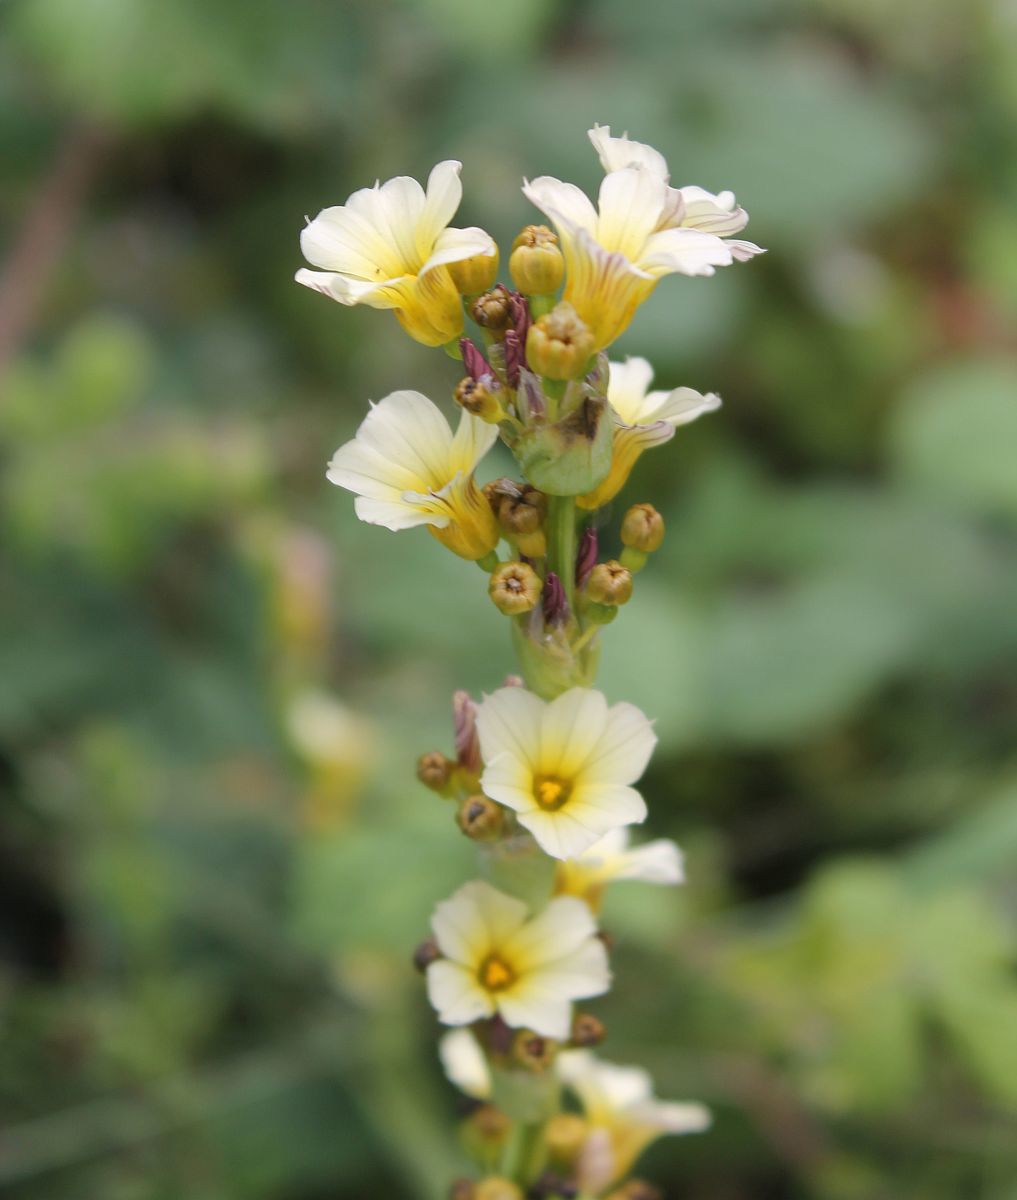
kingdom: Plantae
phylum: Tracheophyta
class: Liliopsida
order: Asparagales
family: Iridaceae
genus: Sisyrinchium
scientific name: Sisyrinchium striatum
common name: Pale yellow-eyed-grass
